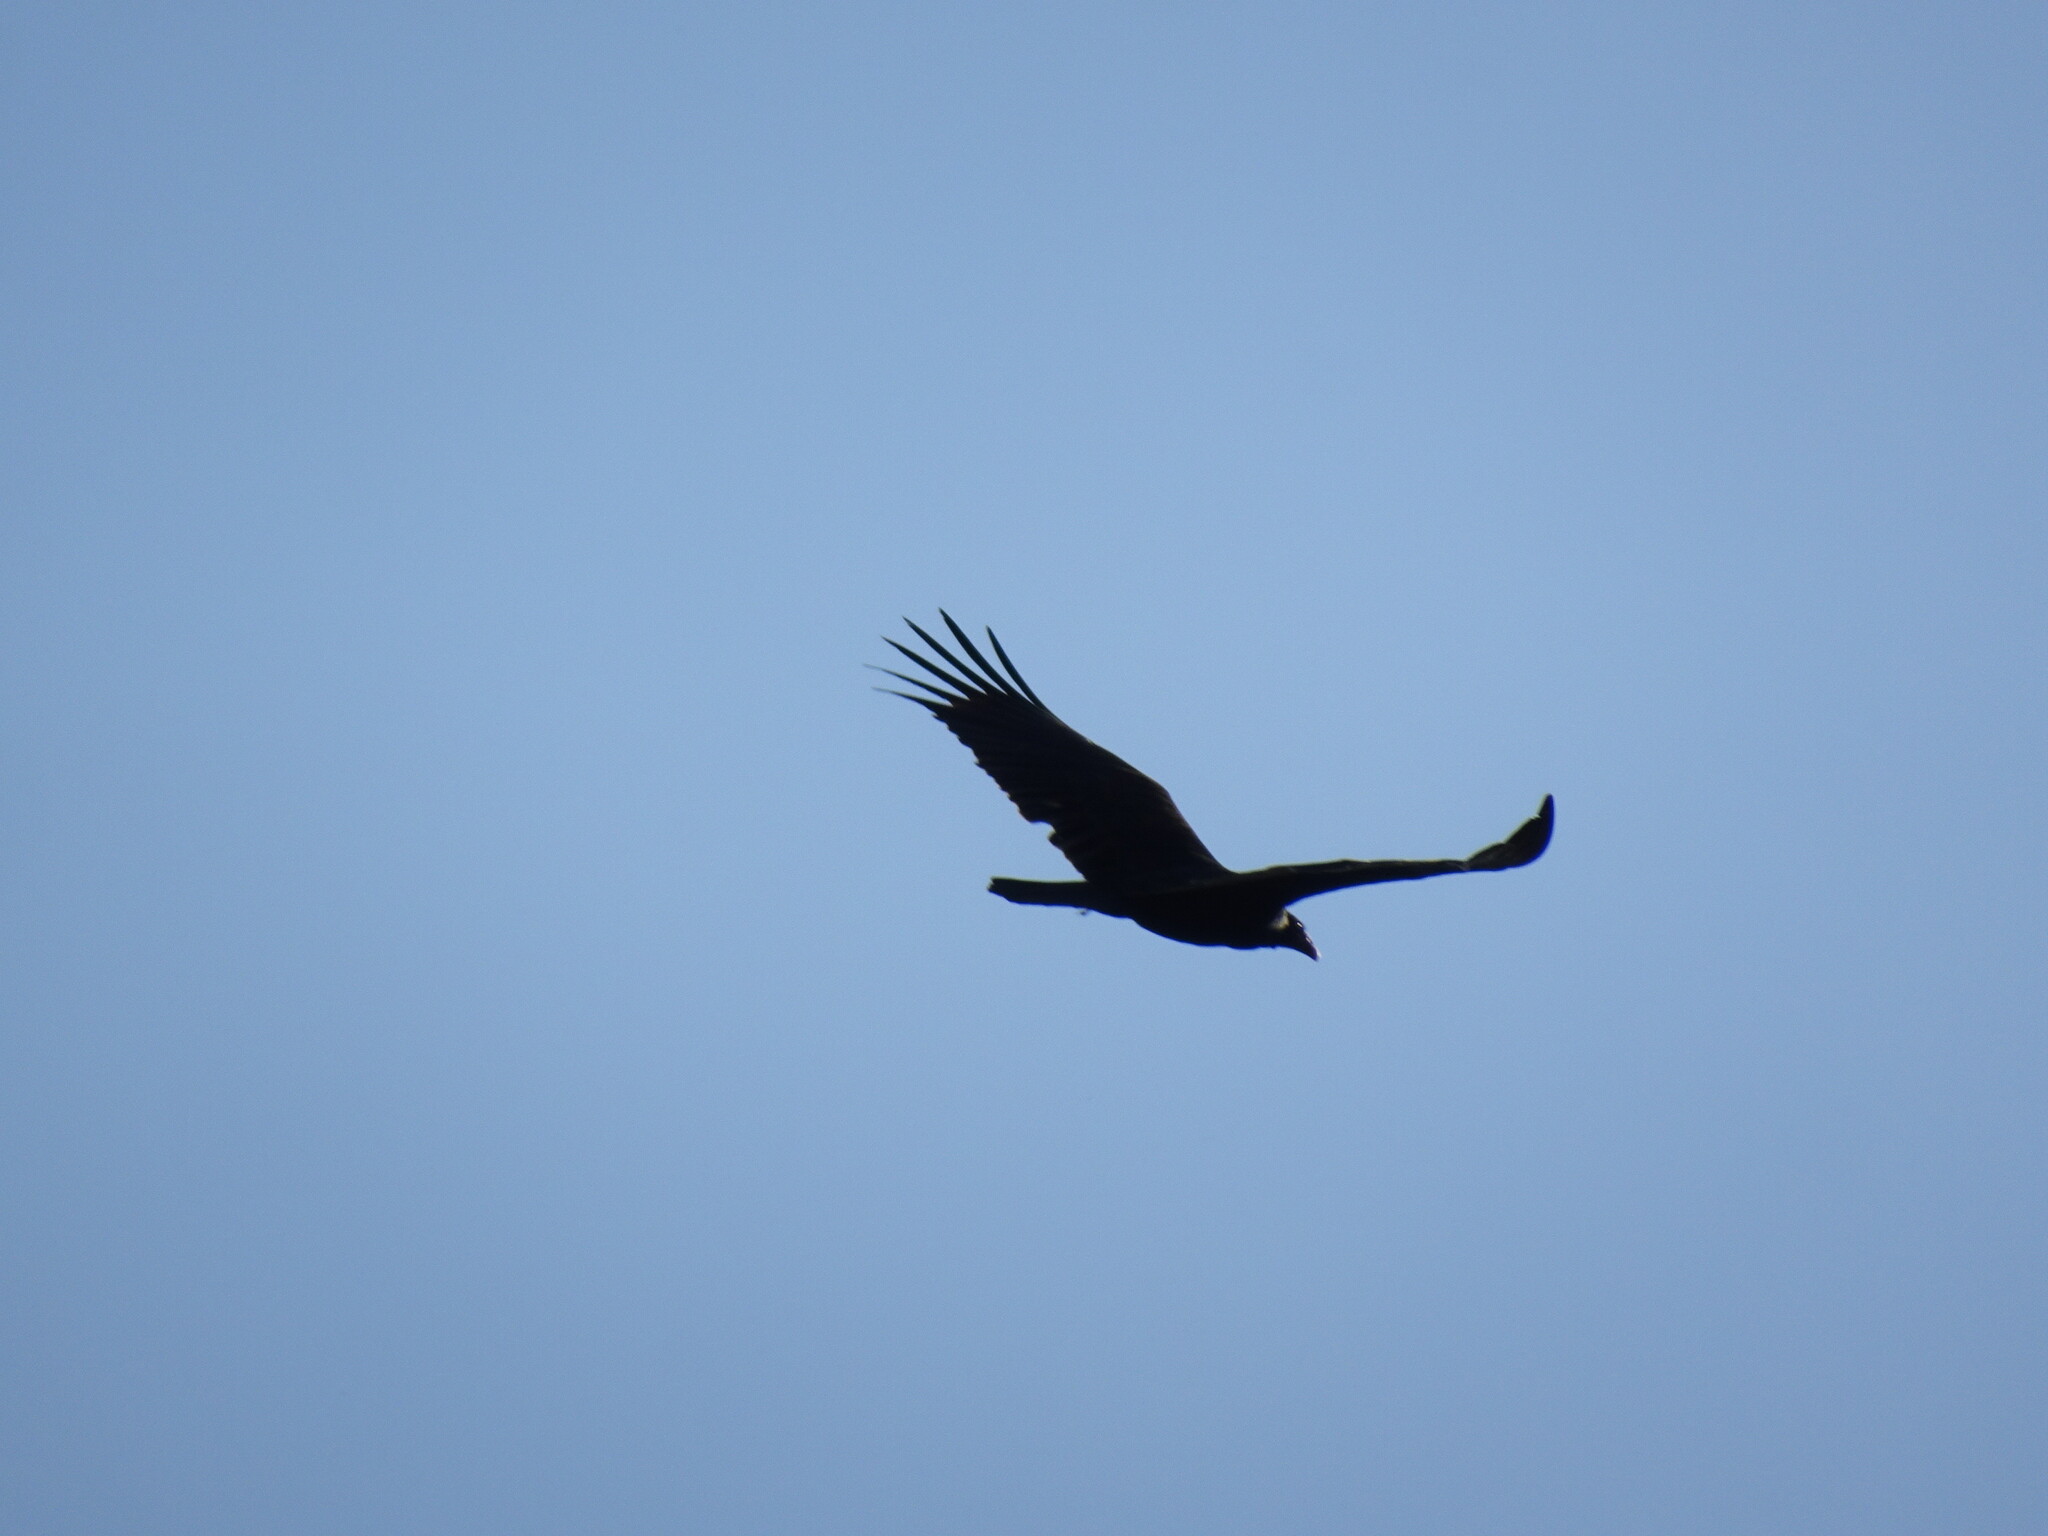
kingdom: Animalia
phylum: Chordata
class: Aves
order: Accipitriformes
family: Cathartidae
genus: Cathartes
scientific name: Cathartes aura
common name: Turkey vulture
